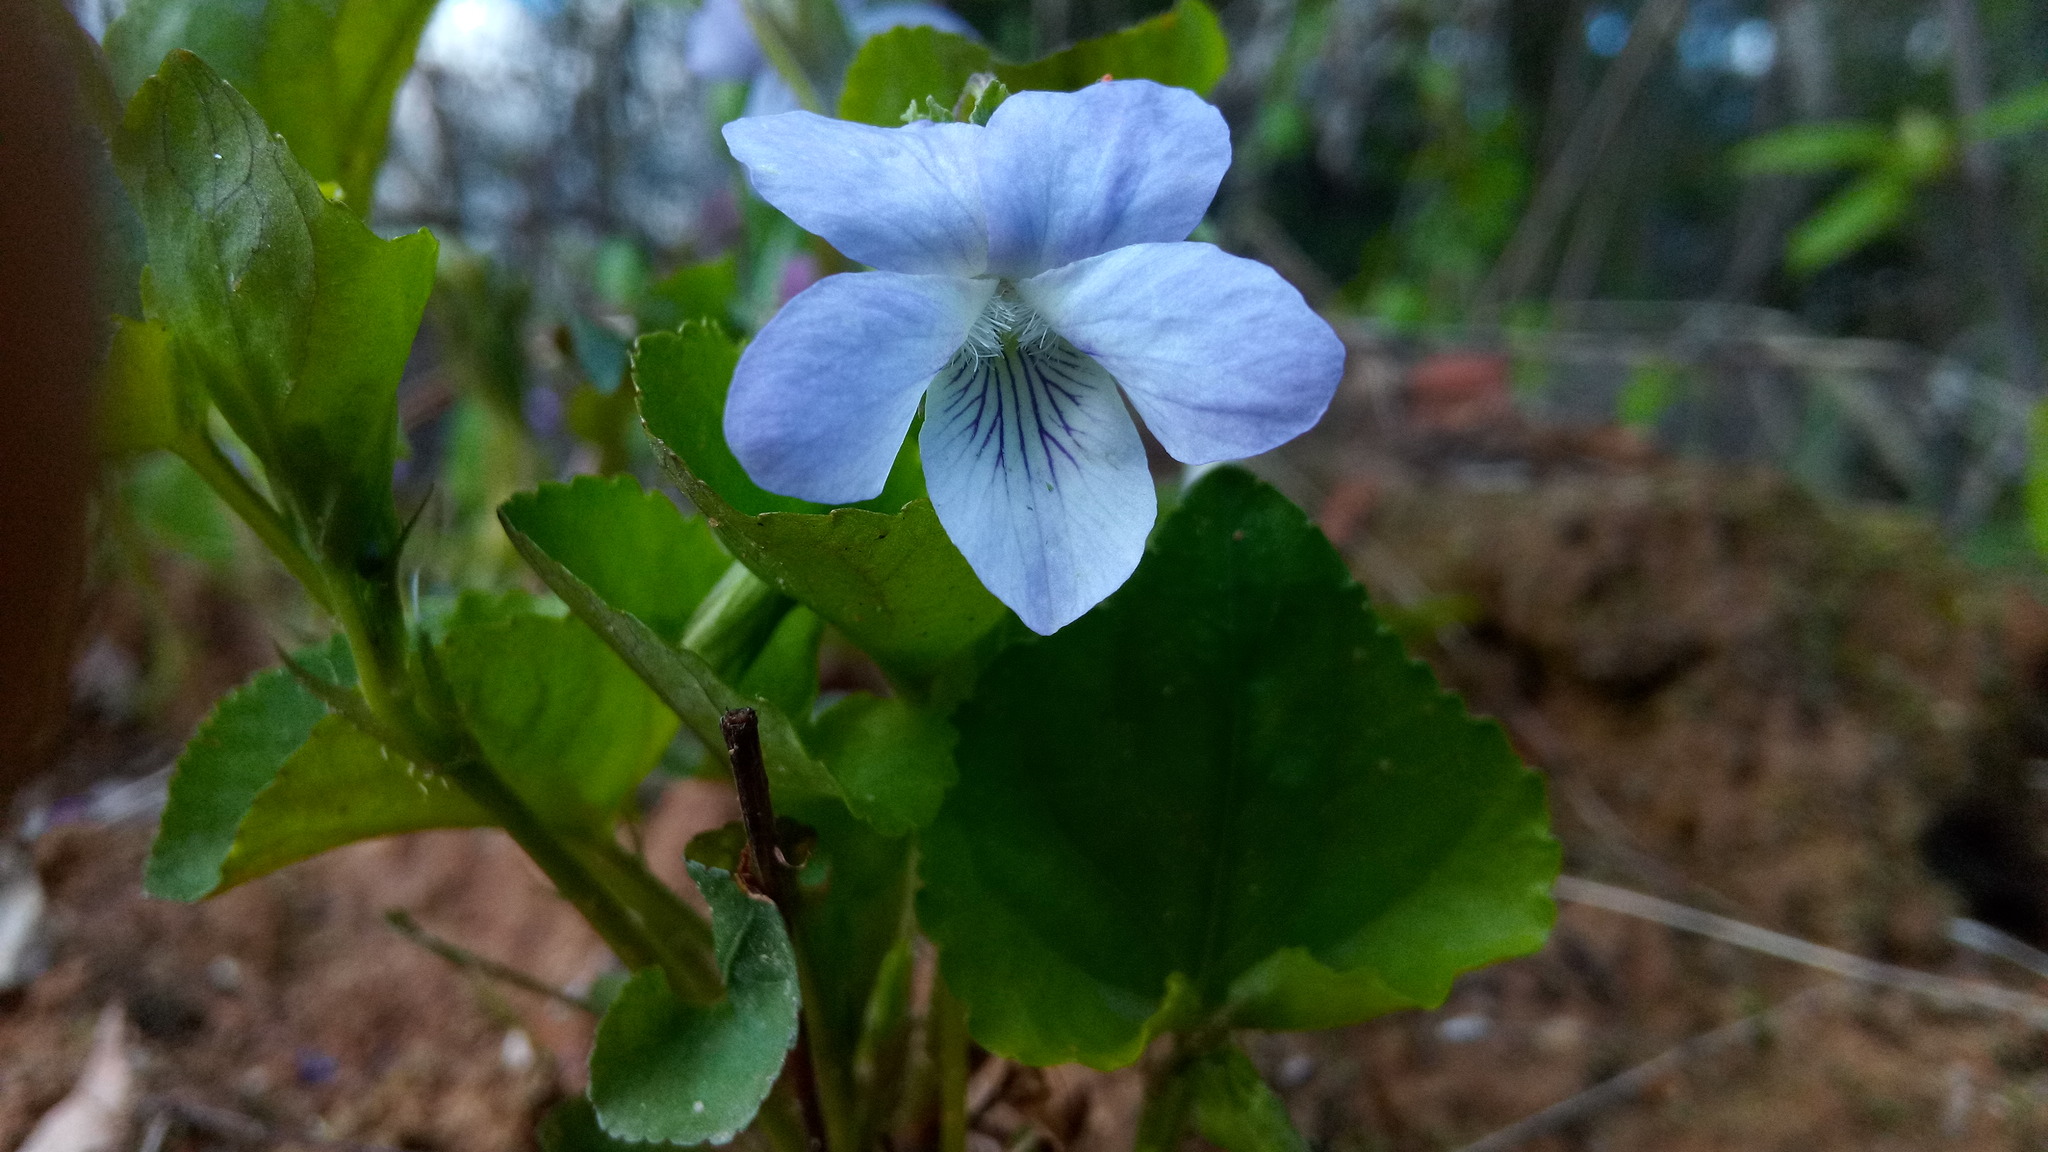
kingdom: Plantae
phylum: Tracheophyta
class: Magnoliopsida
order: Malpighiales
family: Violaceae
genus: Viola
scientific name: Viola canina
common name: Heath dog-violet
